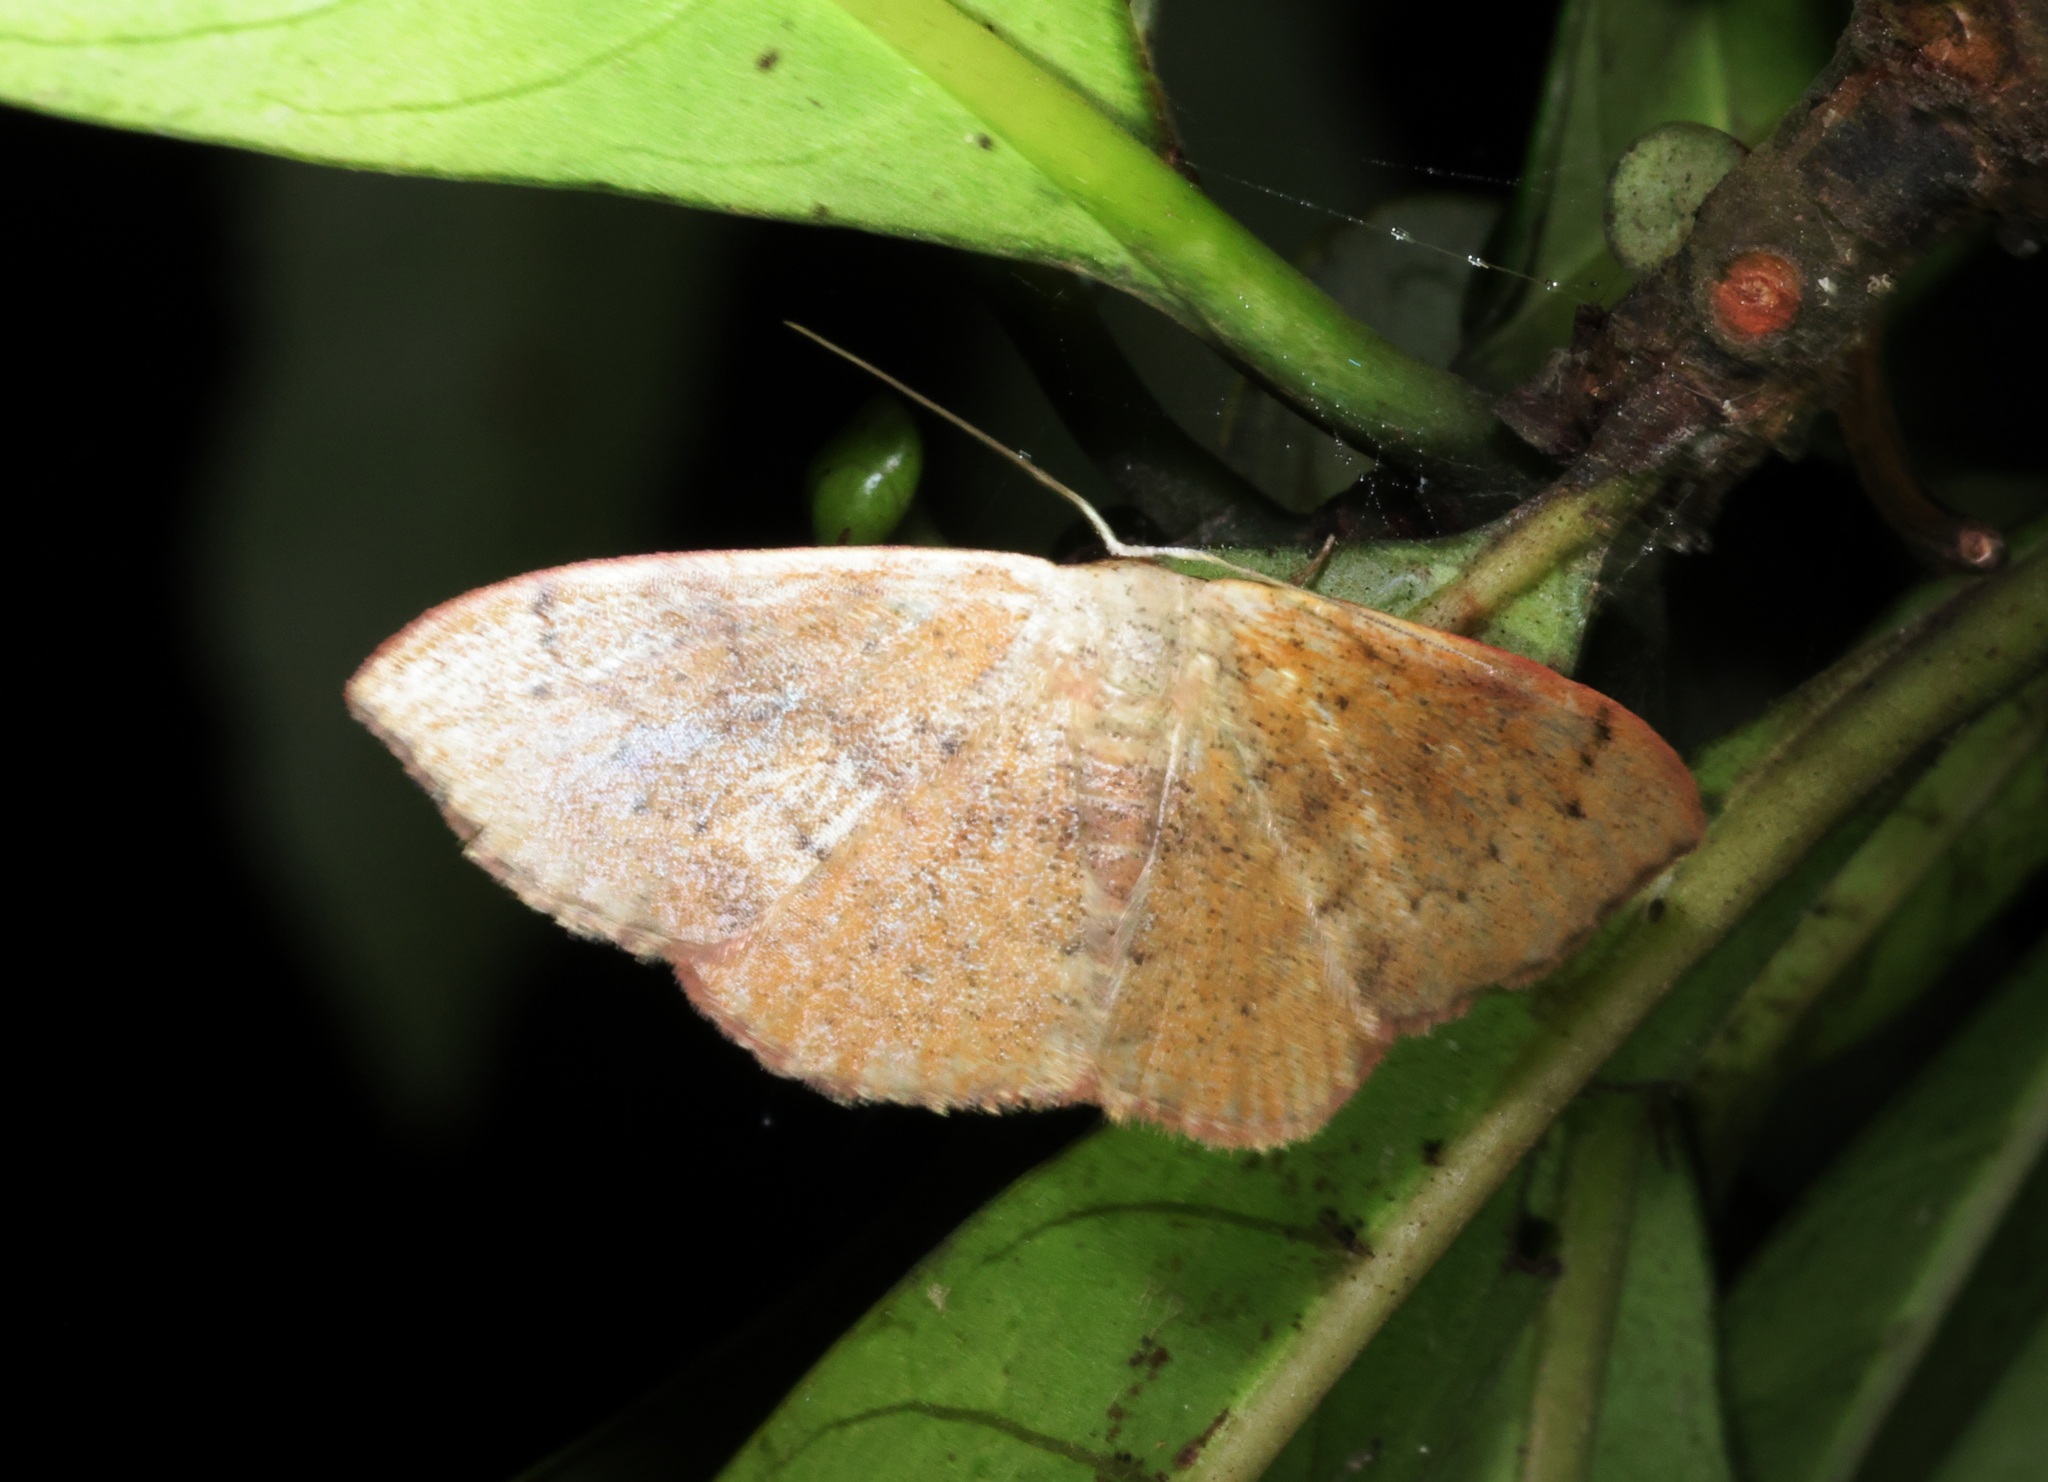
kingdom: Animalia
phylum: Arthropoda
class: Insecta
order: Lepidoptera
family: Geometridae
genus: Somatina
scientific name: Somatina obscuriciliata
